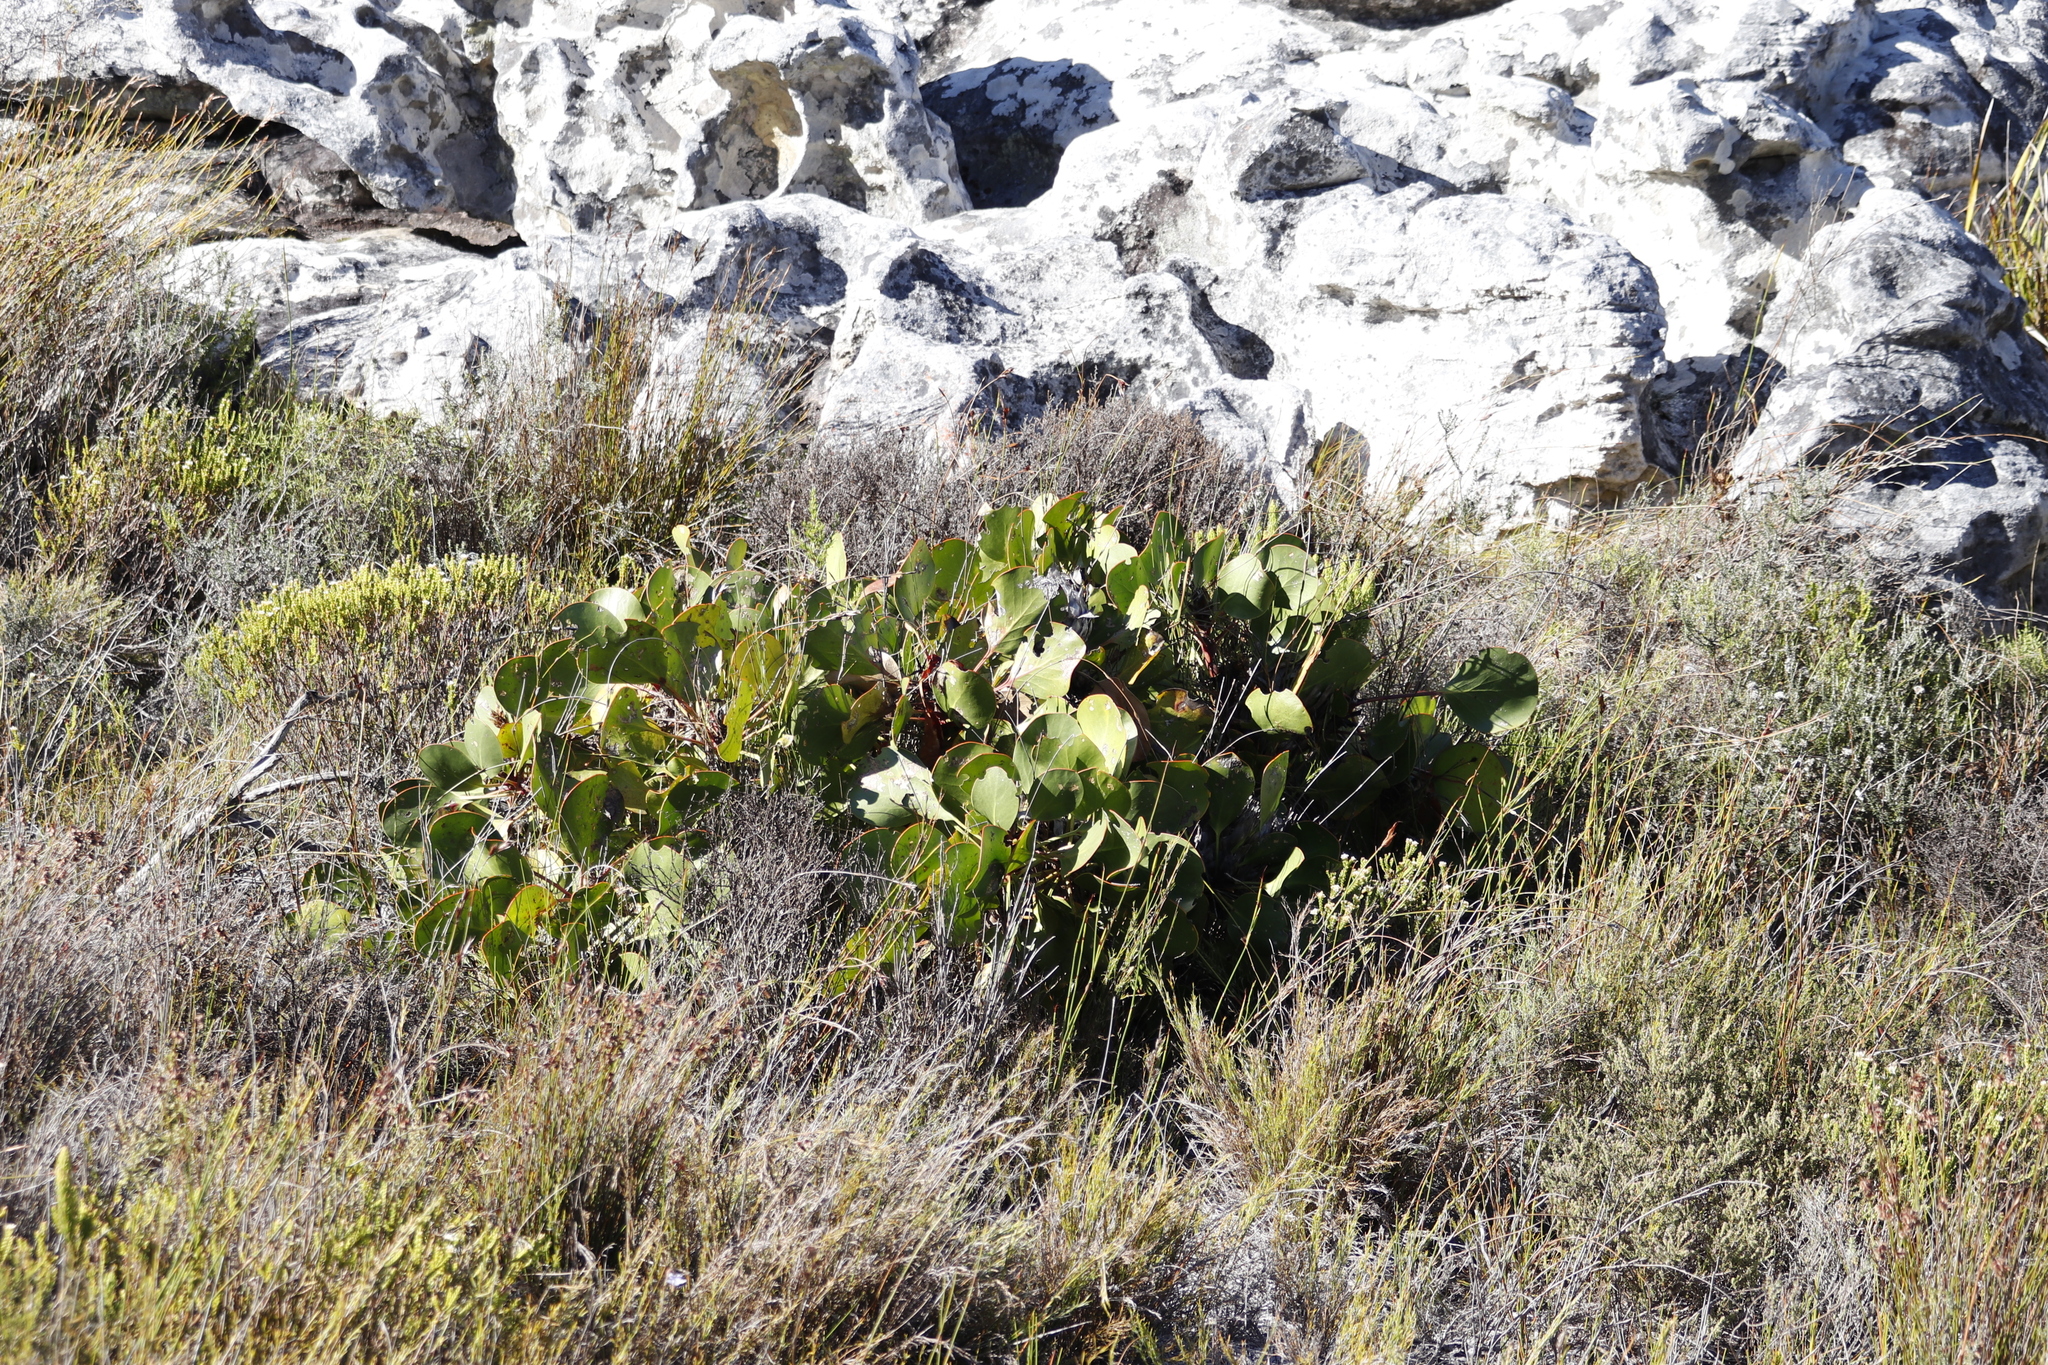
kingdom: Plantae
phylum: Tracheophyta
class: Magnoliopsida
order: Proteales
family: Proteaceae
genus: Protea
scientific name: Protea cynaroides
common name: King protea
